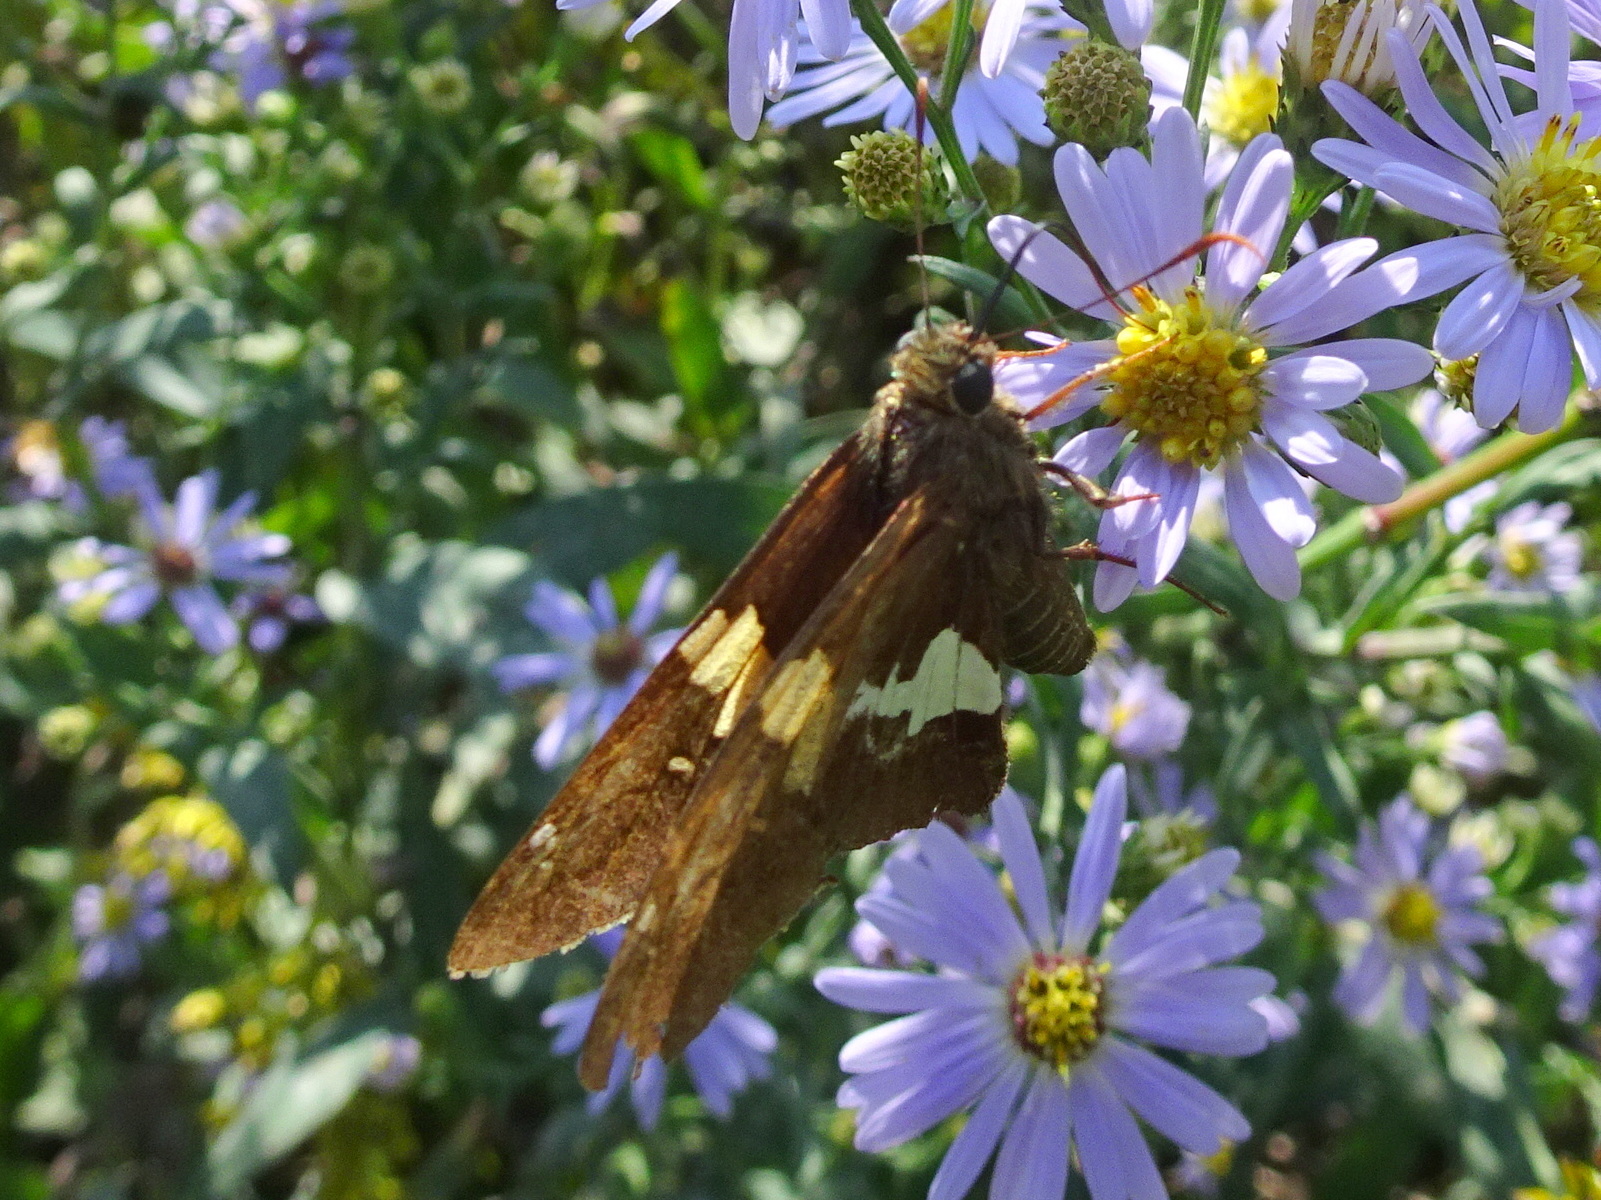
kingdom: Animalia
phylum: Arthropoda
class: Insecta
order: Lepidoptera
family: Hesperiidae
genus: Epargyreus
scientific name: Epargyreus clarus
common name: Silver-spotted skipper
